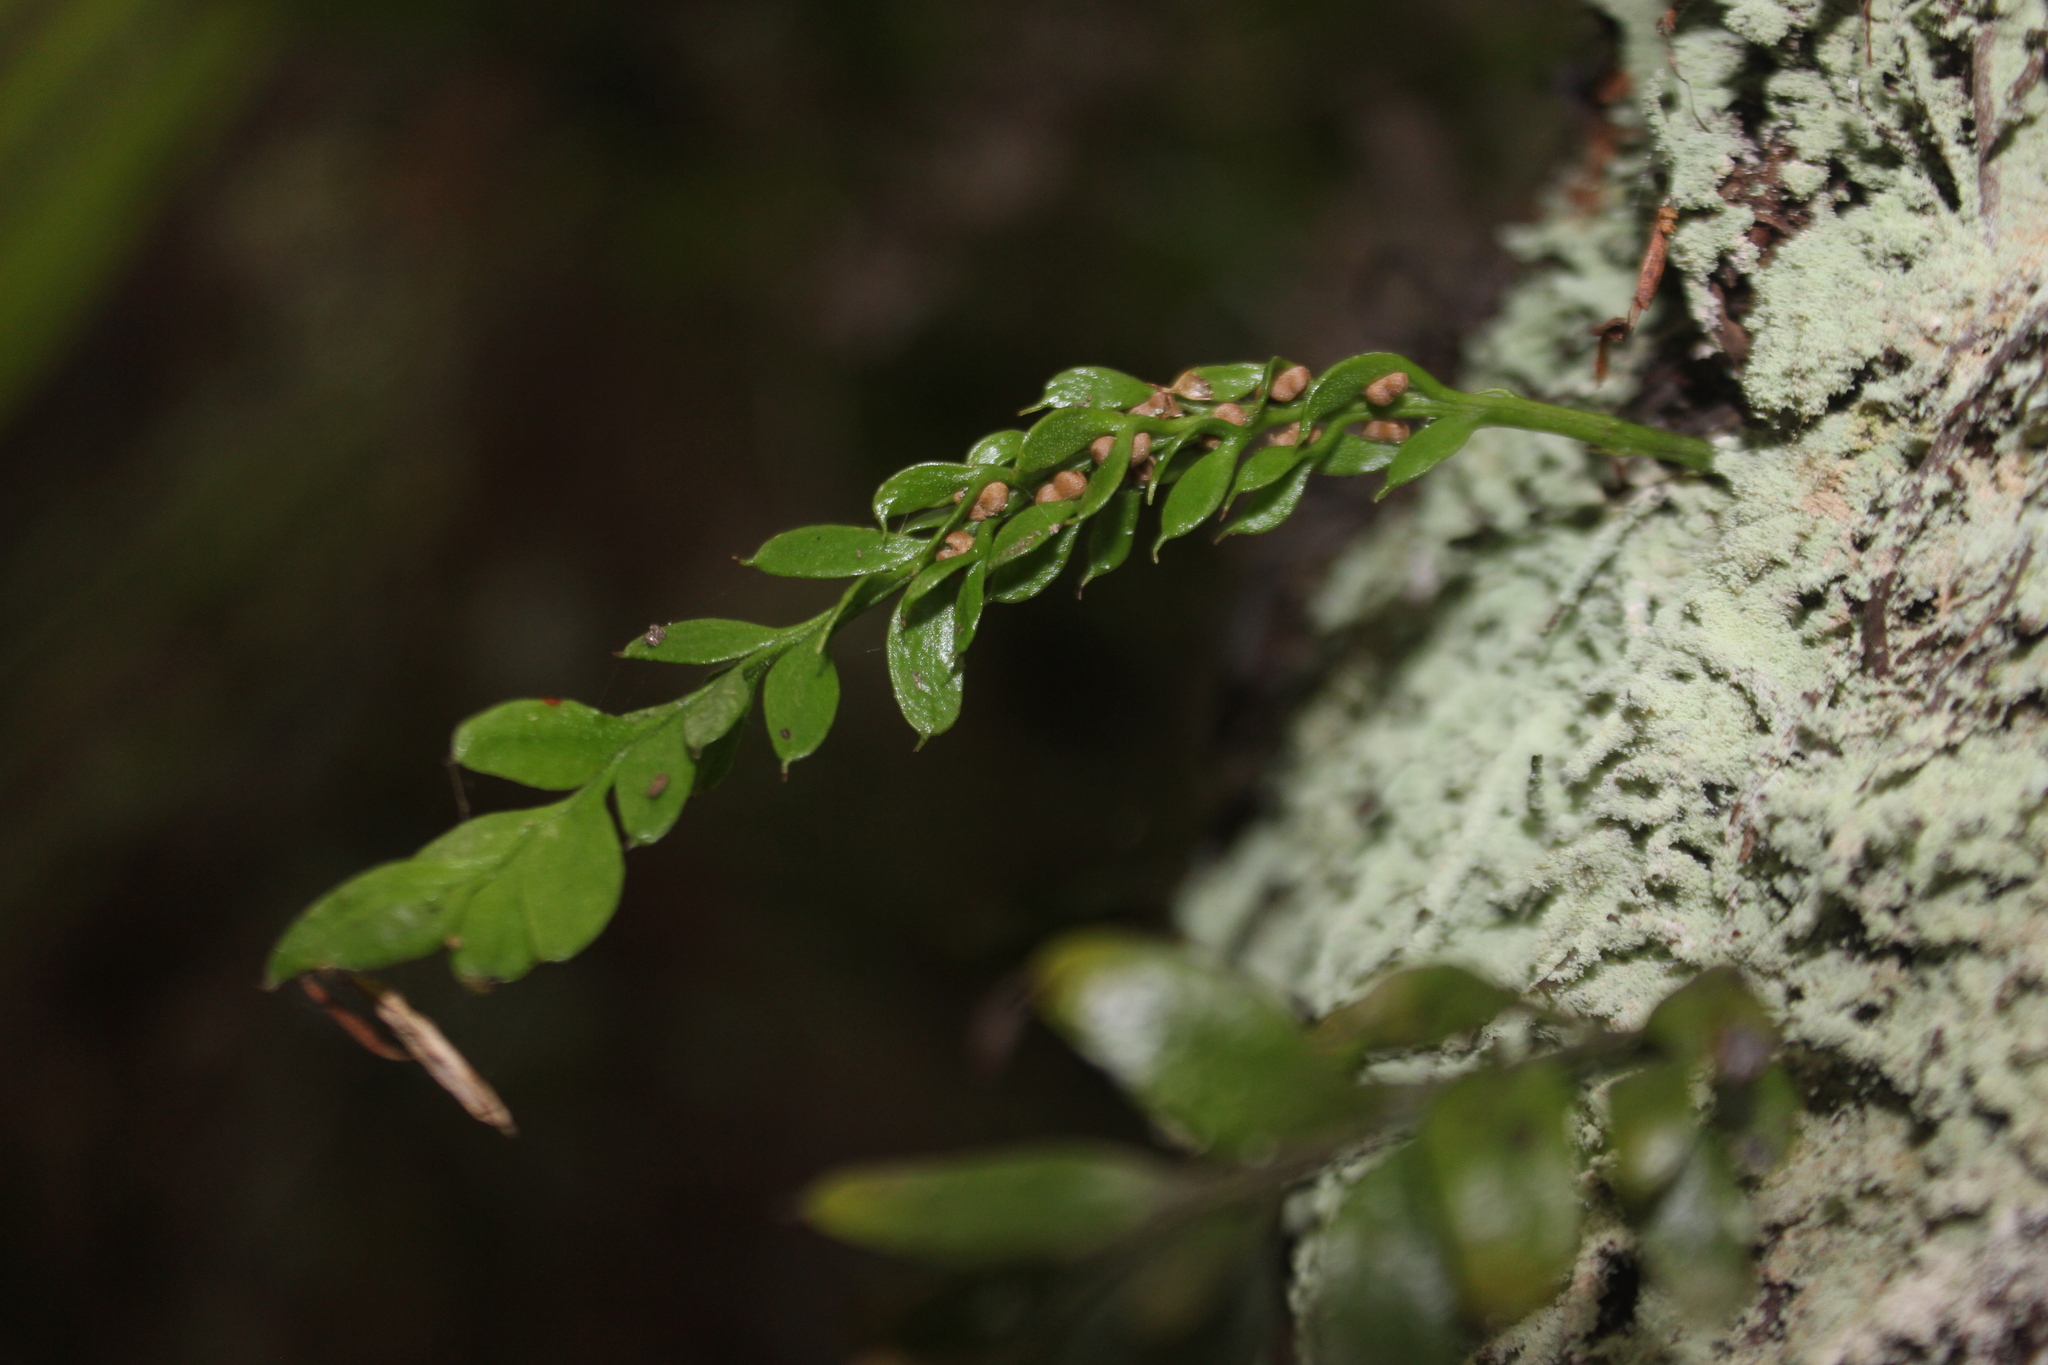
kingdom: Plantae
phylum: Tracheophyta
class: Polypodiopsida
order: Psilotales
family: Psilotaceae
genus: Tmesipteris
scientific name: Tmesipteris sigmatifolia
